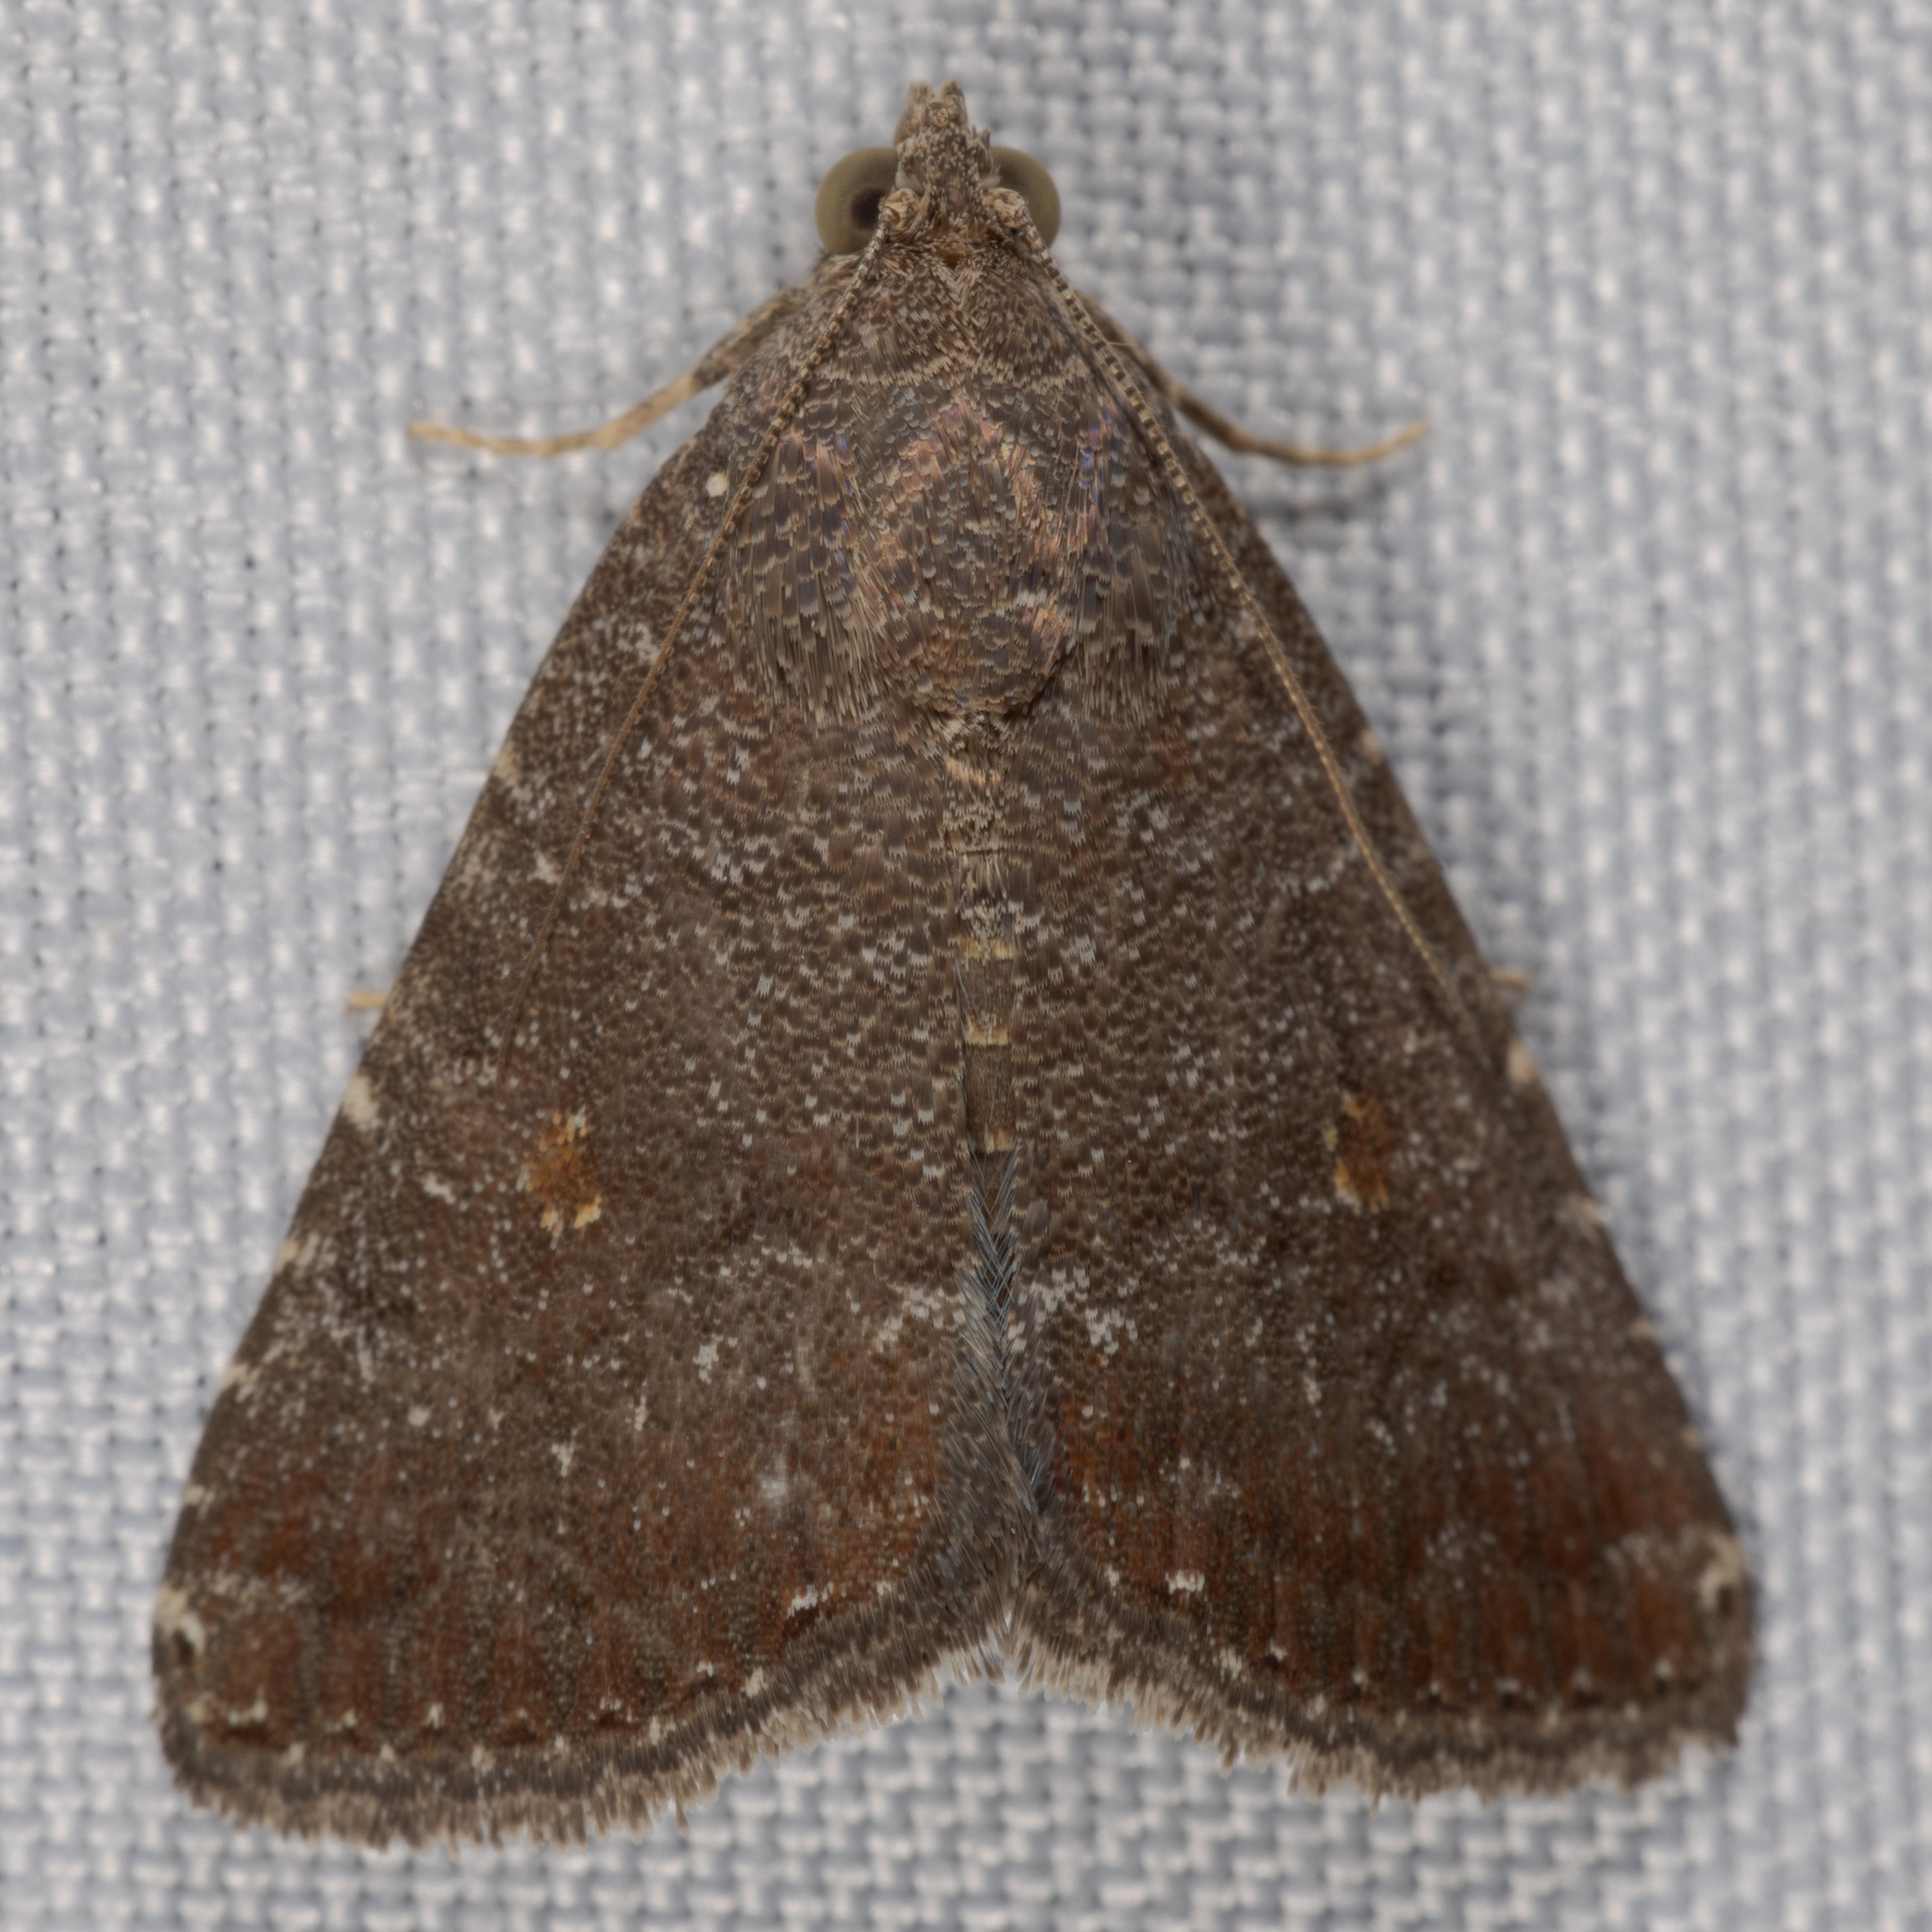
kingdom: Animalia
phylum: Arthropoda
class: Insecta
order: Lepidoptera
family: Noctuidae
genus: Amyna
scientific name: Amyna stricta
